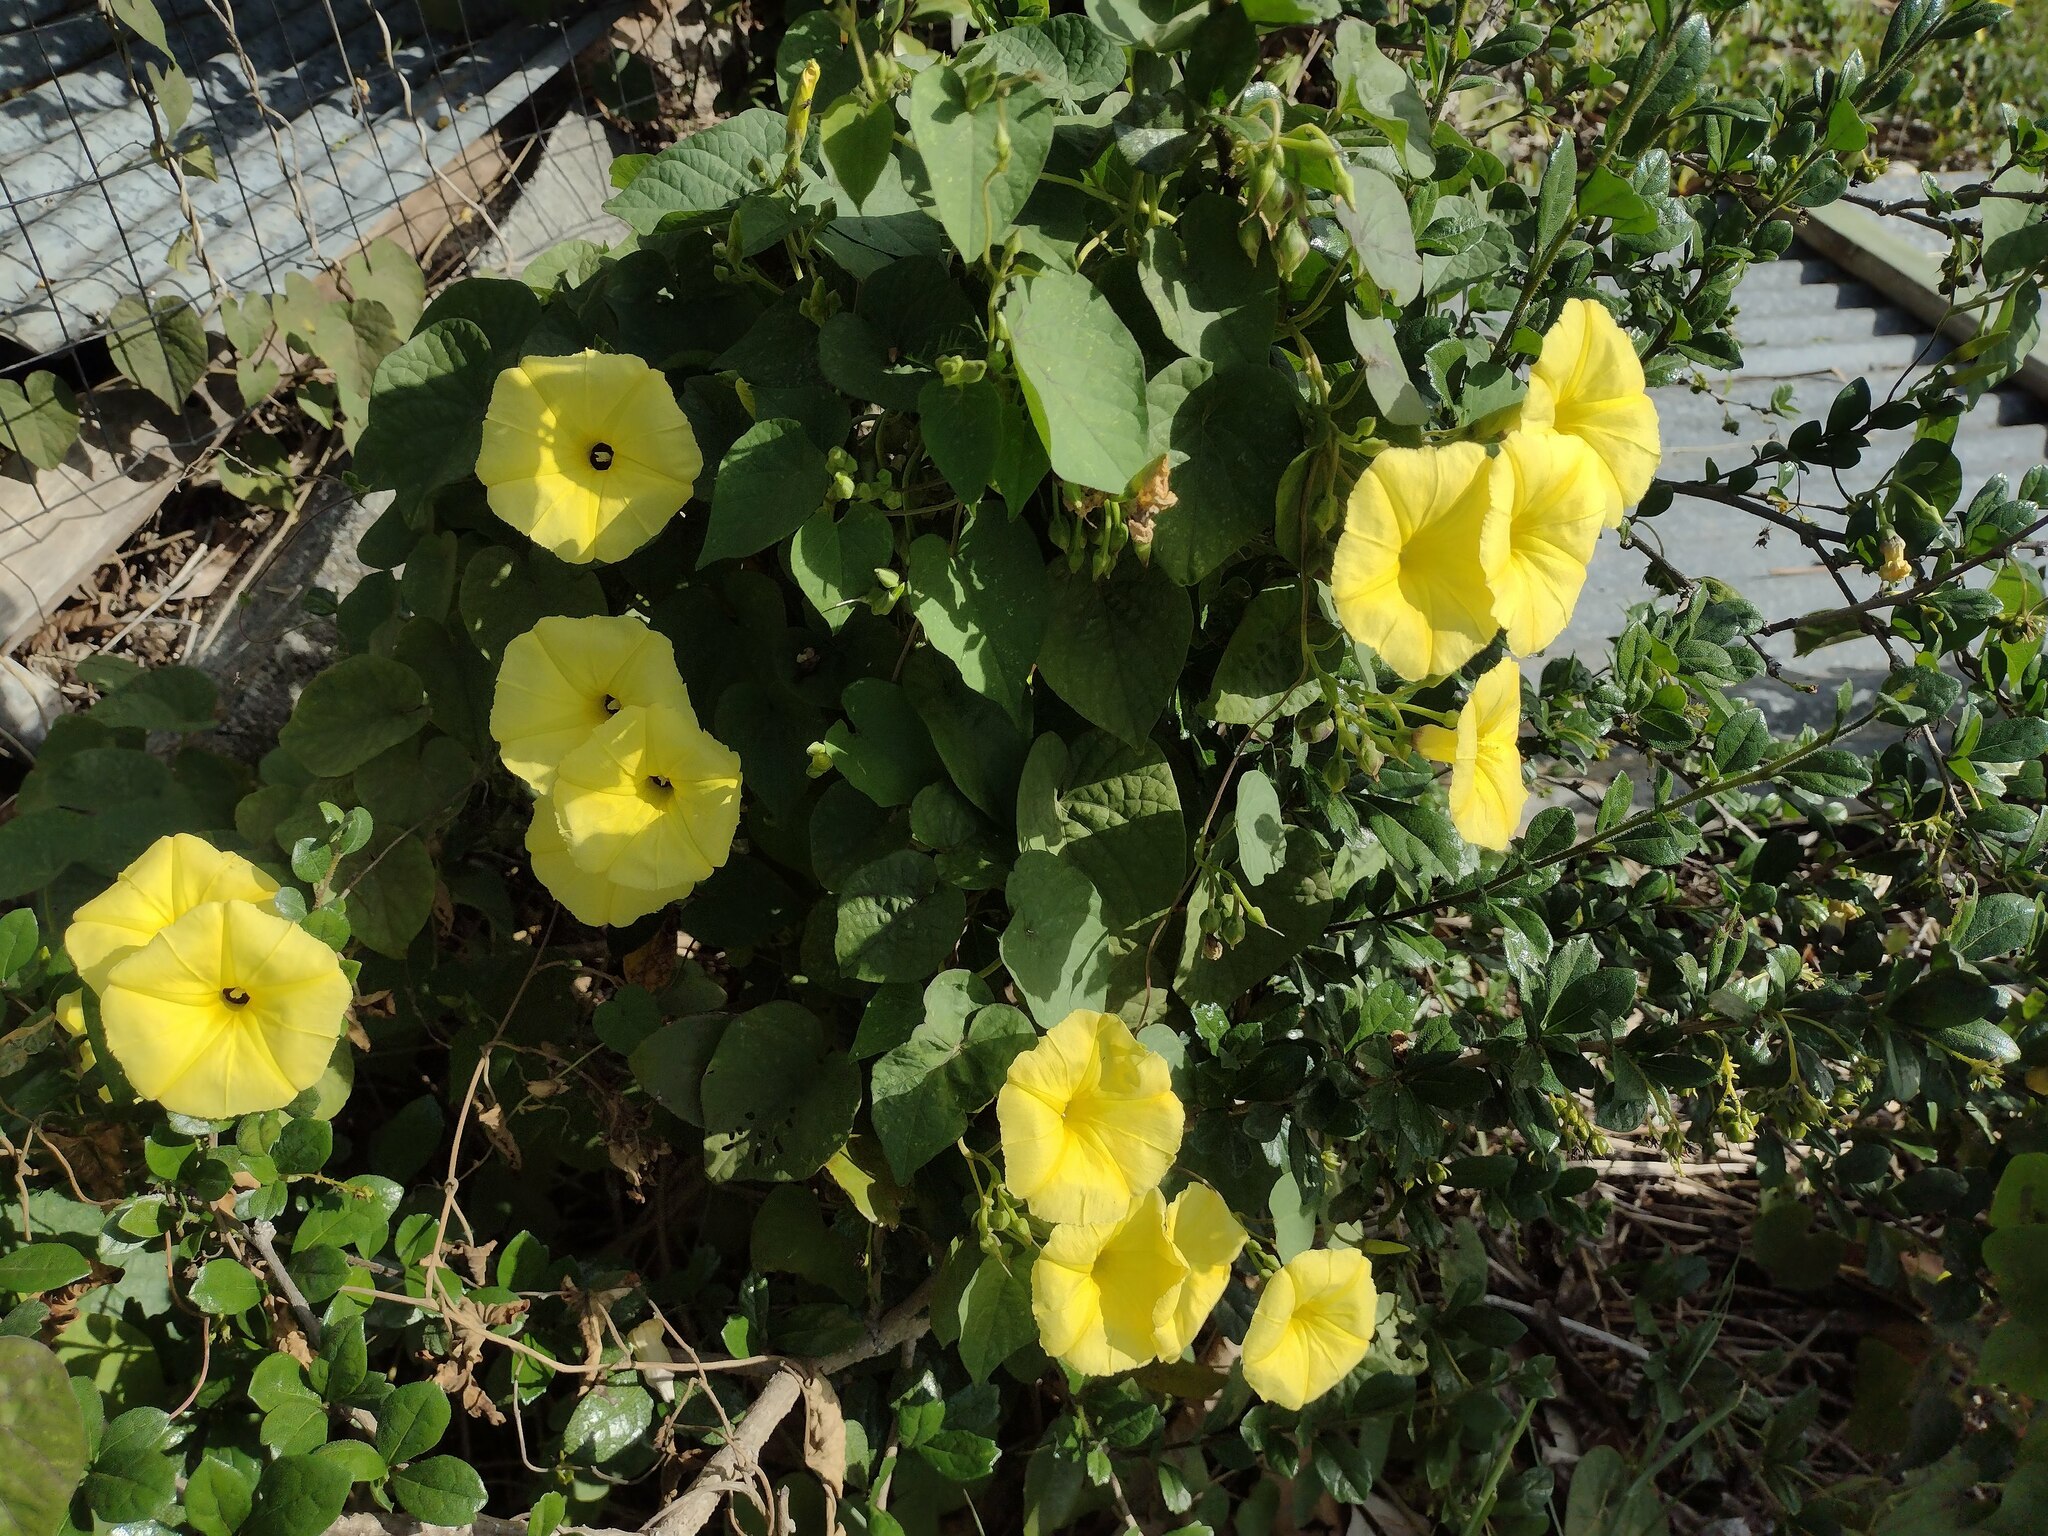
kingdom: Plantae
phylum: Tracheophyta
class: Magnoliopsida
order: Solanales
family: Convolvulaceae
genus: Ipomoea
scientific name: Ipomoea ochracea
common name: Fence morning-glory
